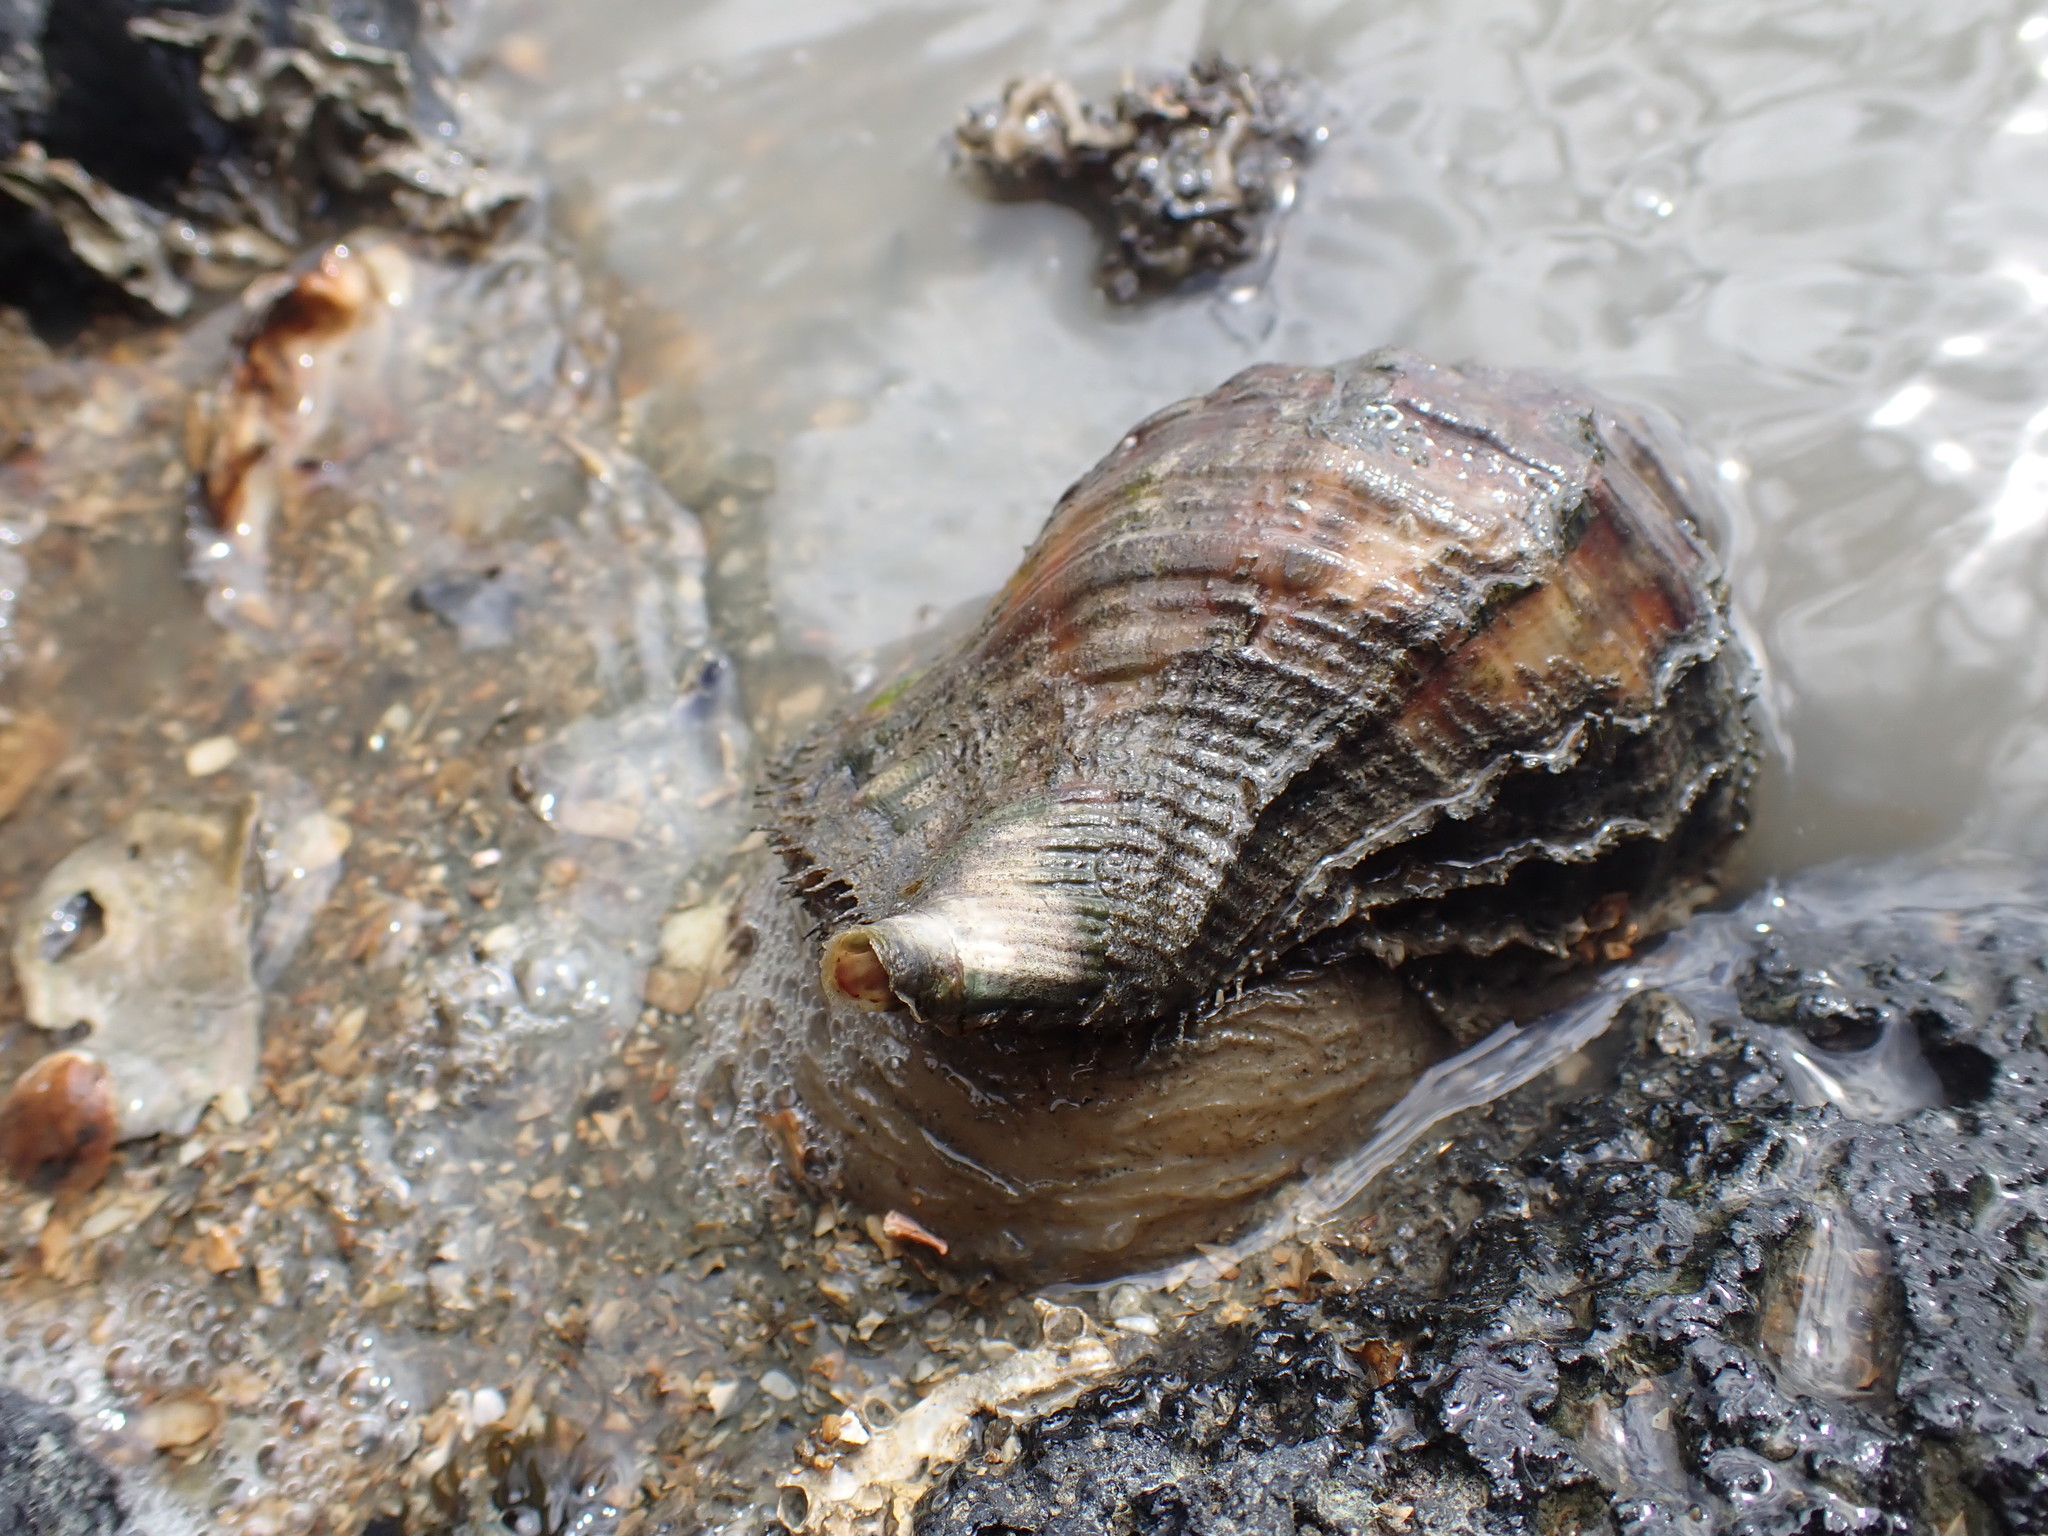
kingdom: Animalia
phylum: Mollusca
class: Gastropoda
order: Littorinimorpha
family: Cymatiidae
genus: Monoplex
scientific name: Monoplex parthenopeus
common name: Giant triton
